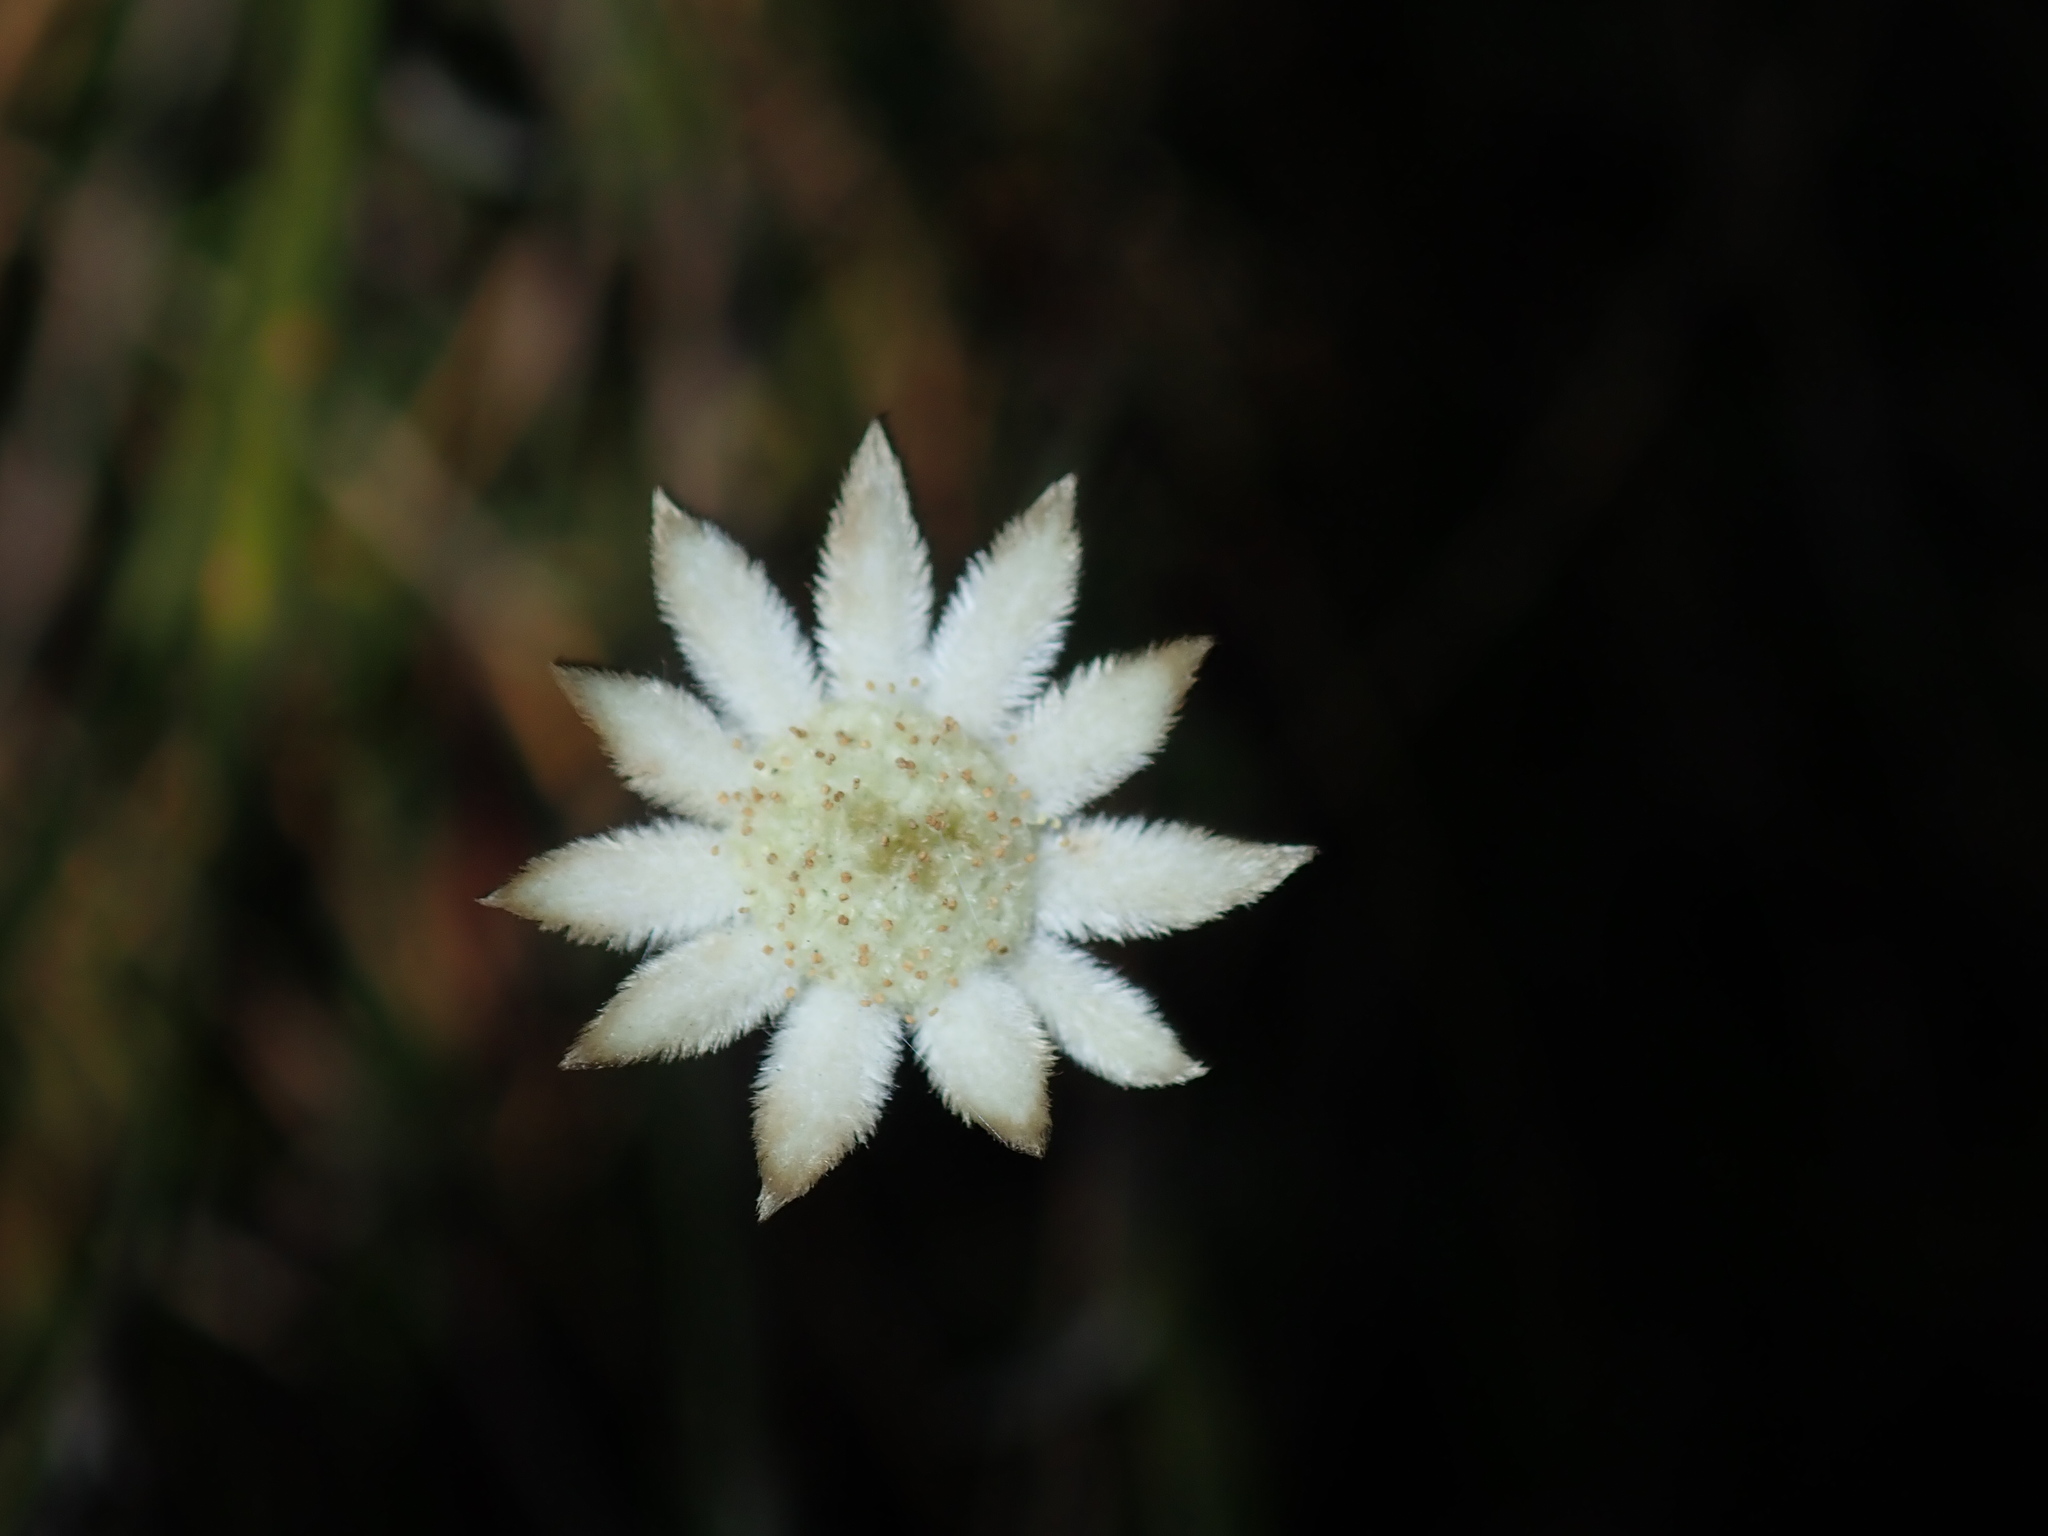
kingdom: Plantae
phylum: Tracheophyta
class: Magnoliopsida
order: Apiales
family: Apiaceae
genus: Actinotus
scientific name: Actinotus minor
